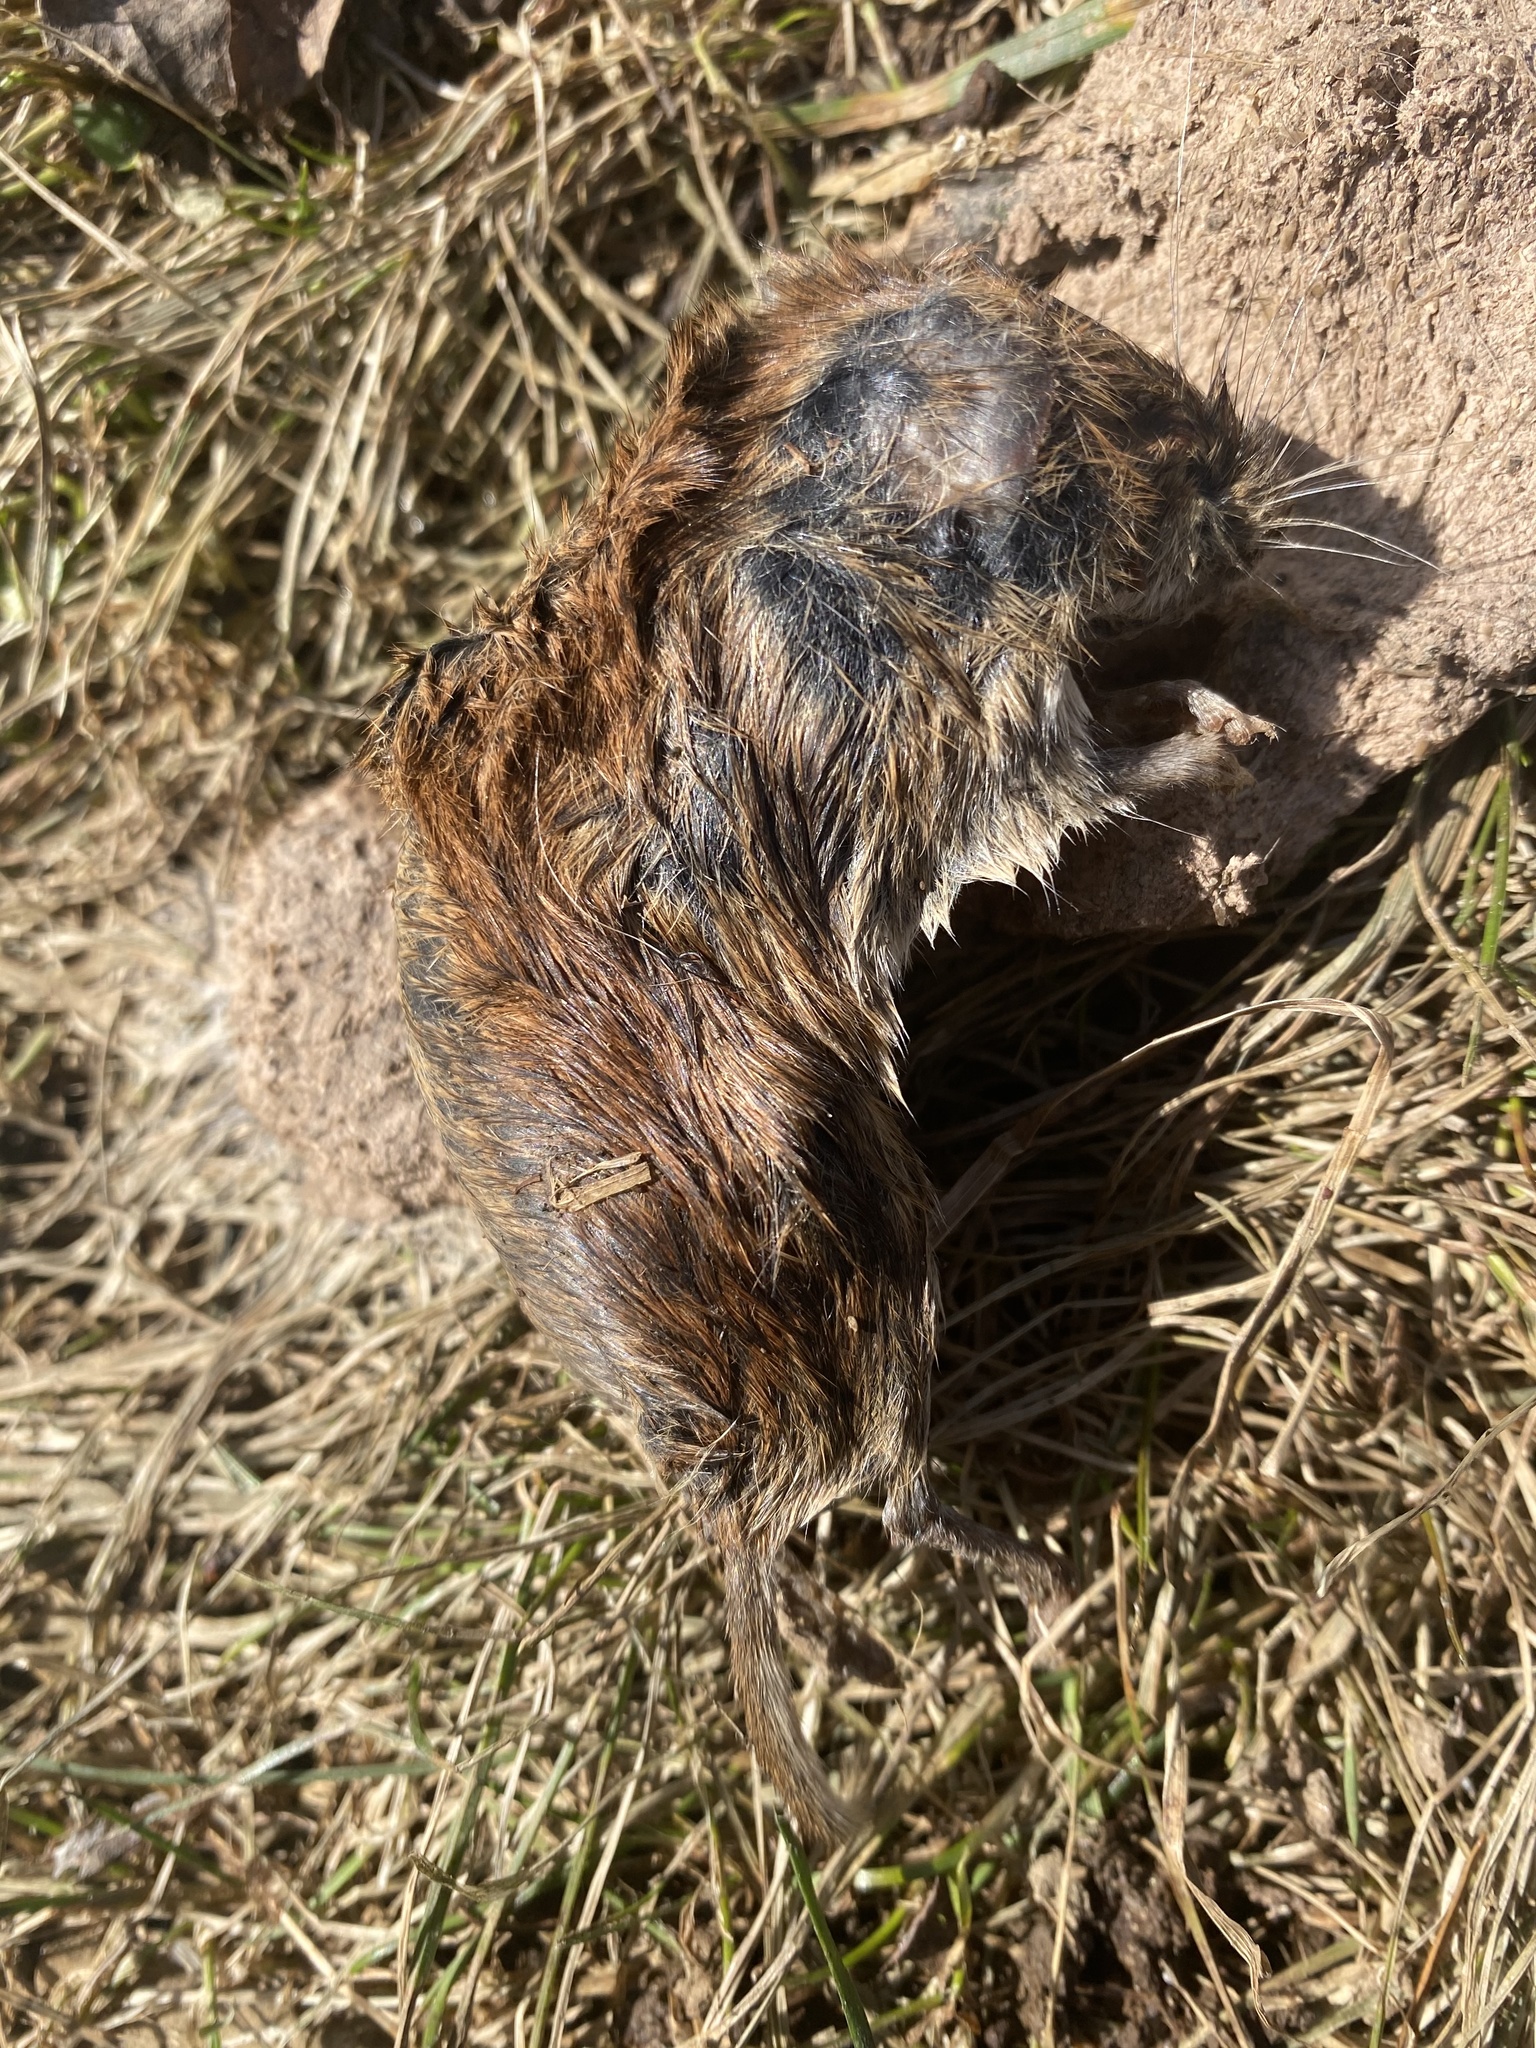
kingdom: Animalia
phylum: Chordata
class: Mammalia
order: Rodentia
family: Cricetidae
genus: Microtus
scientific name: Microtus pennsylvanicus
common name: Meadow vole
